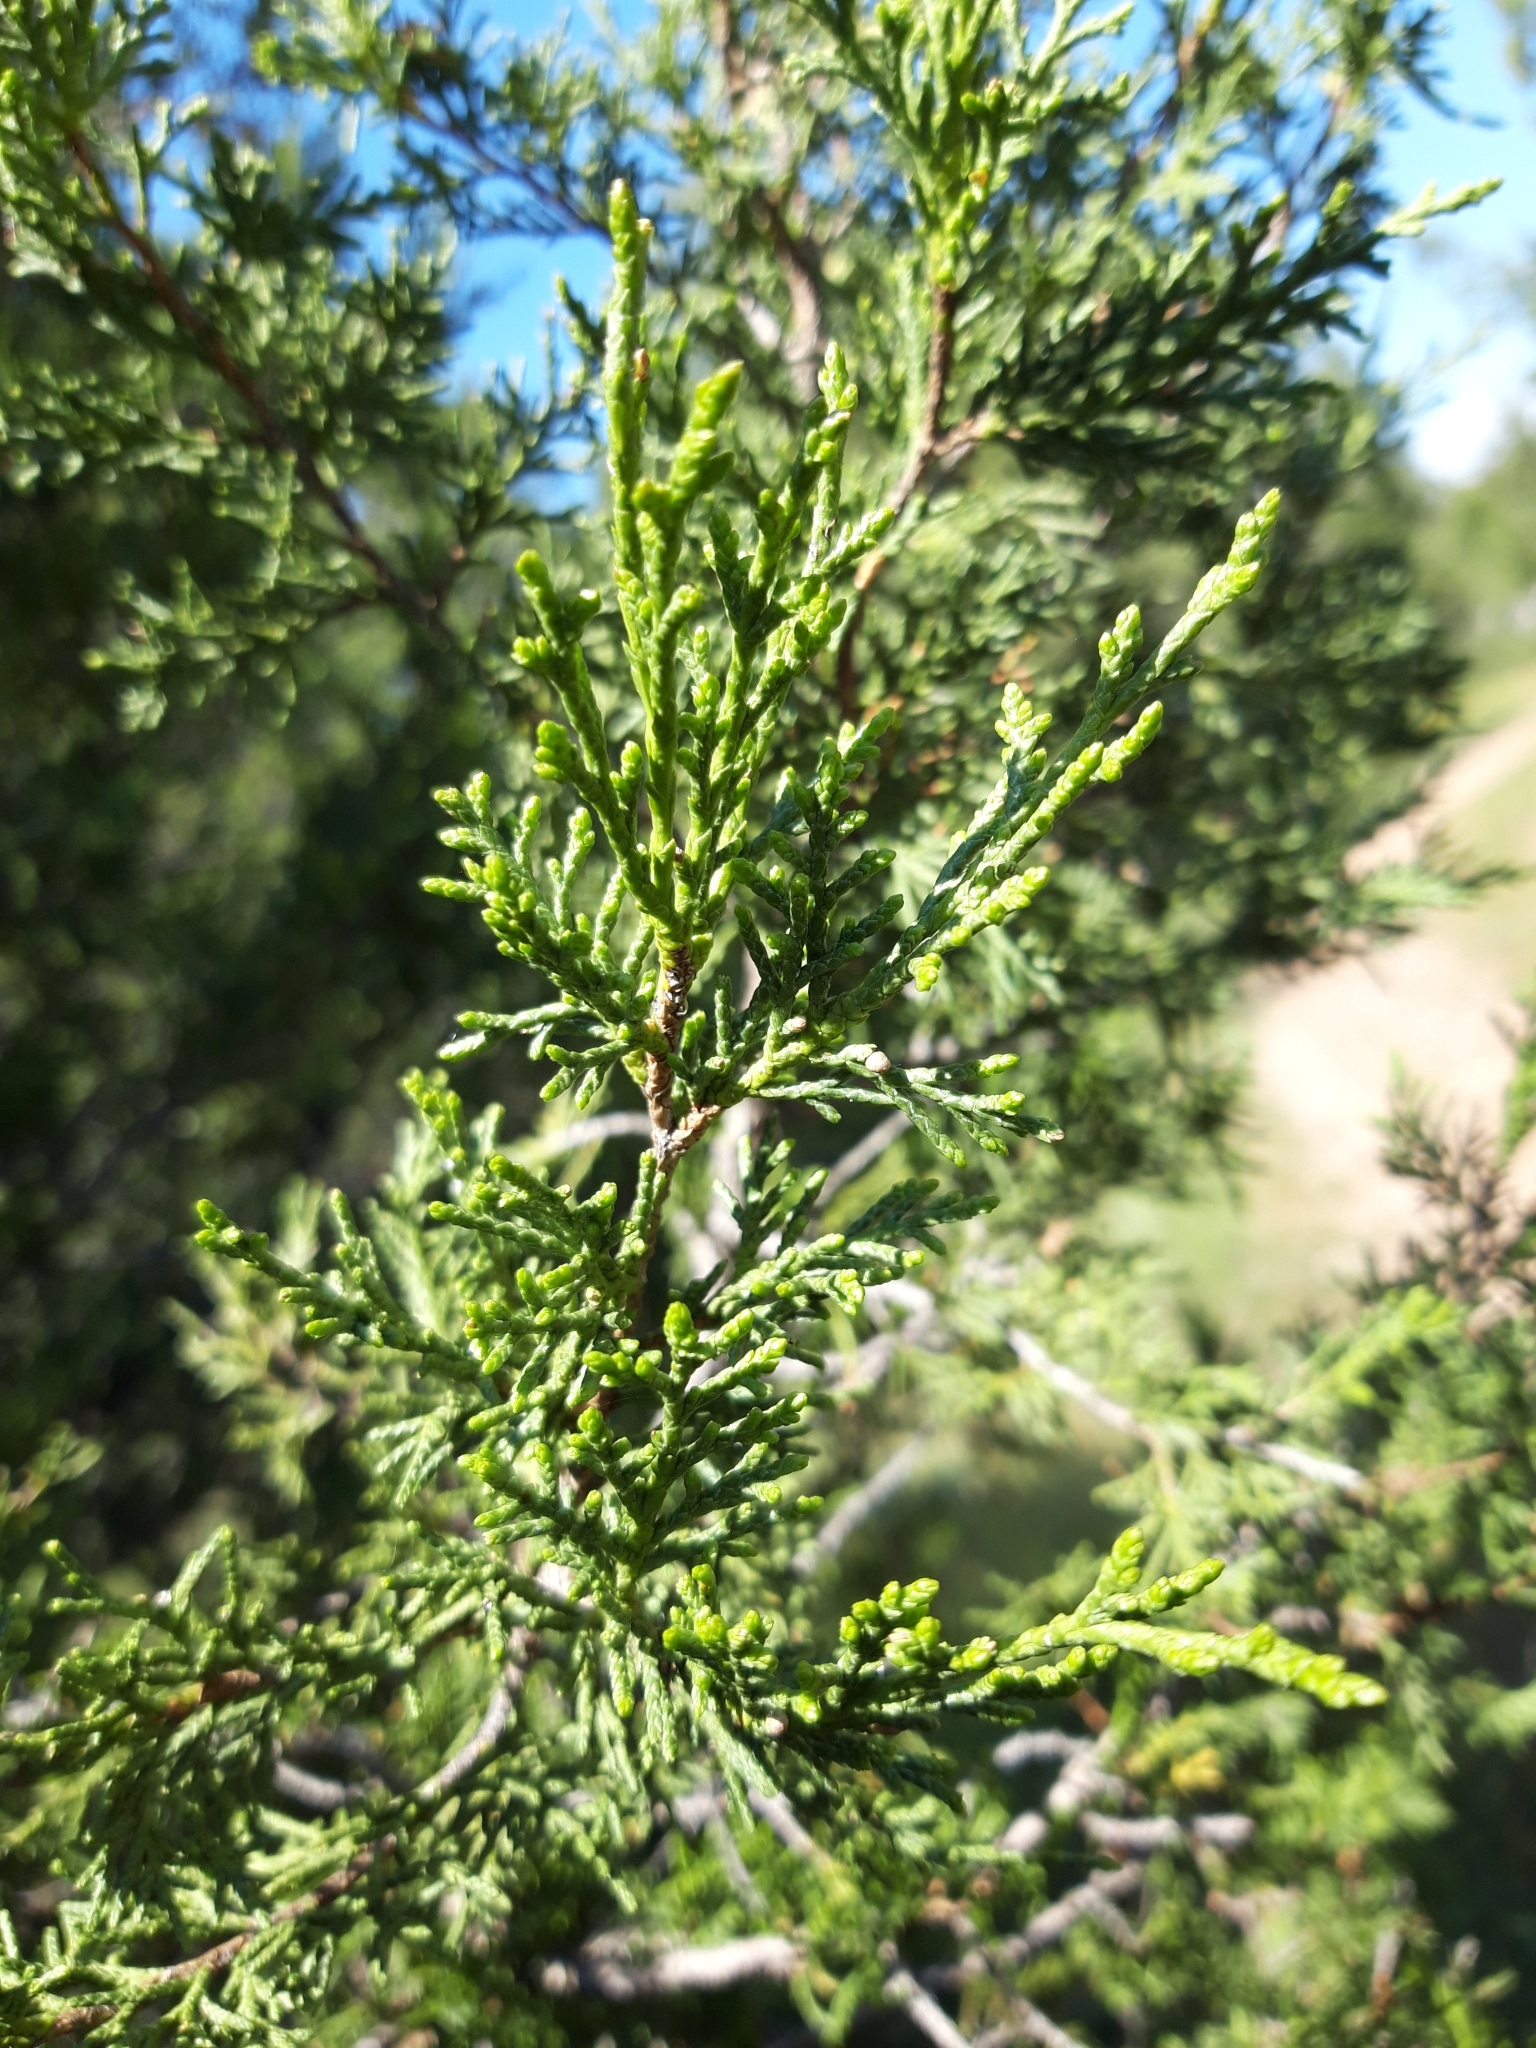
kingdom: Plantae
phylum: Tracheophyta
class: Pinopsida
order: Pinales
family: Cupressaceae
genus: Juniperus
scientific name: Juniperus thurifera
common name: Incense juniper
